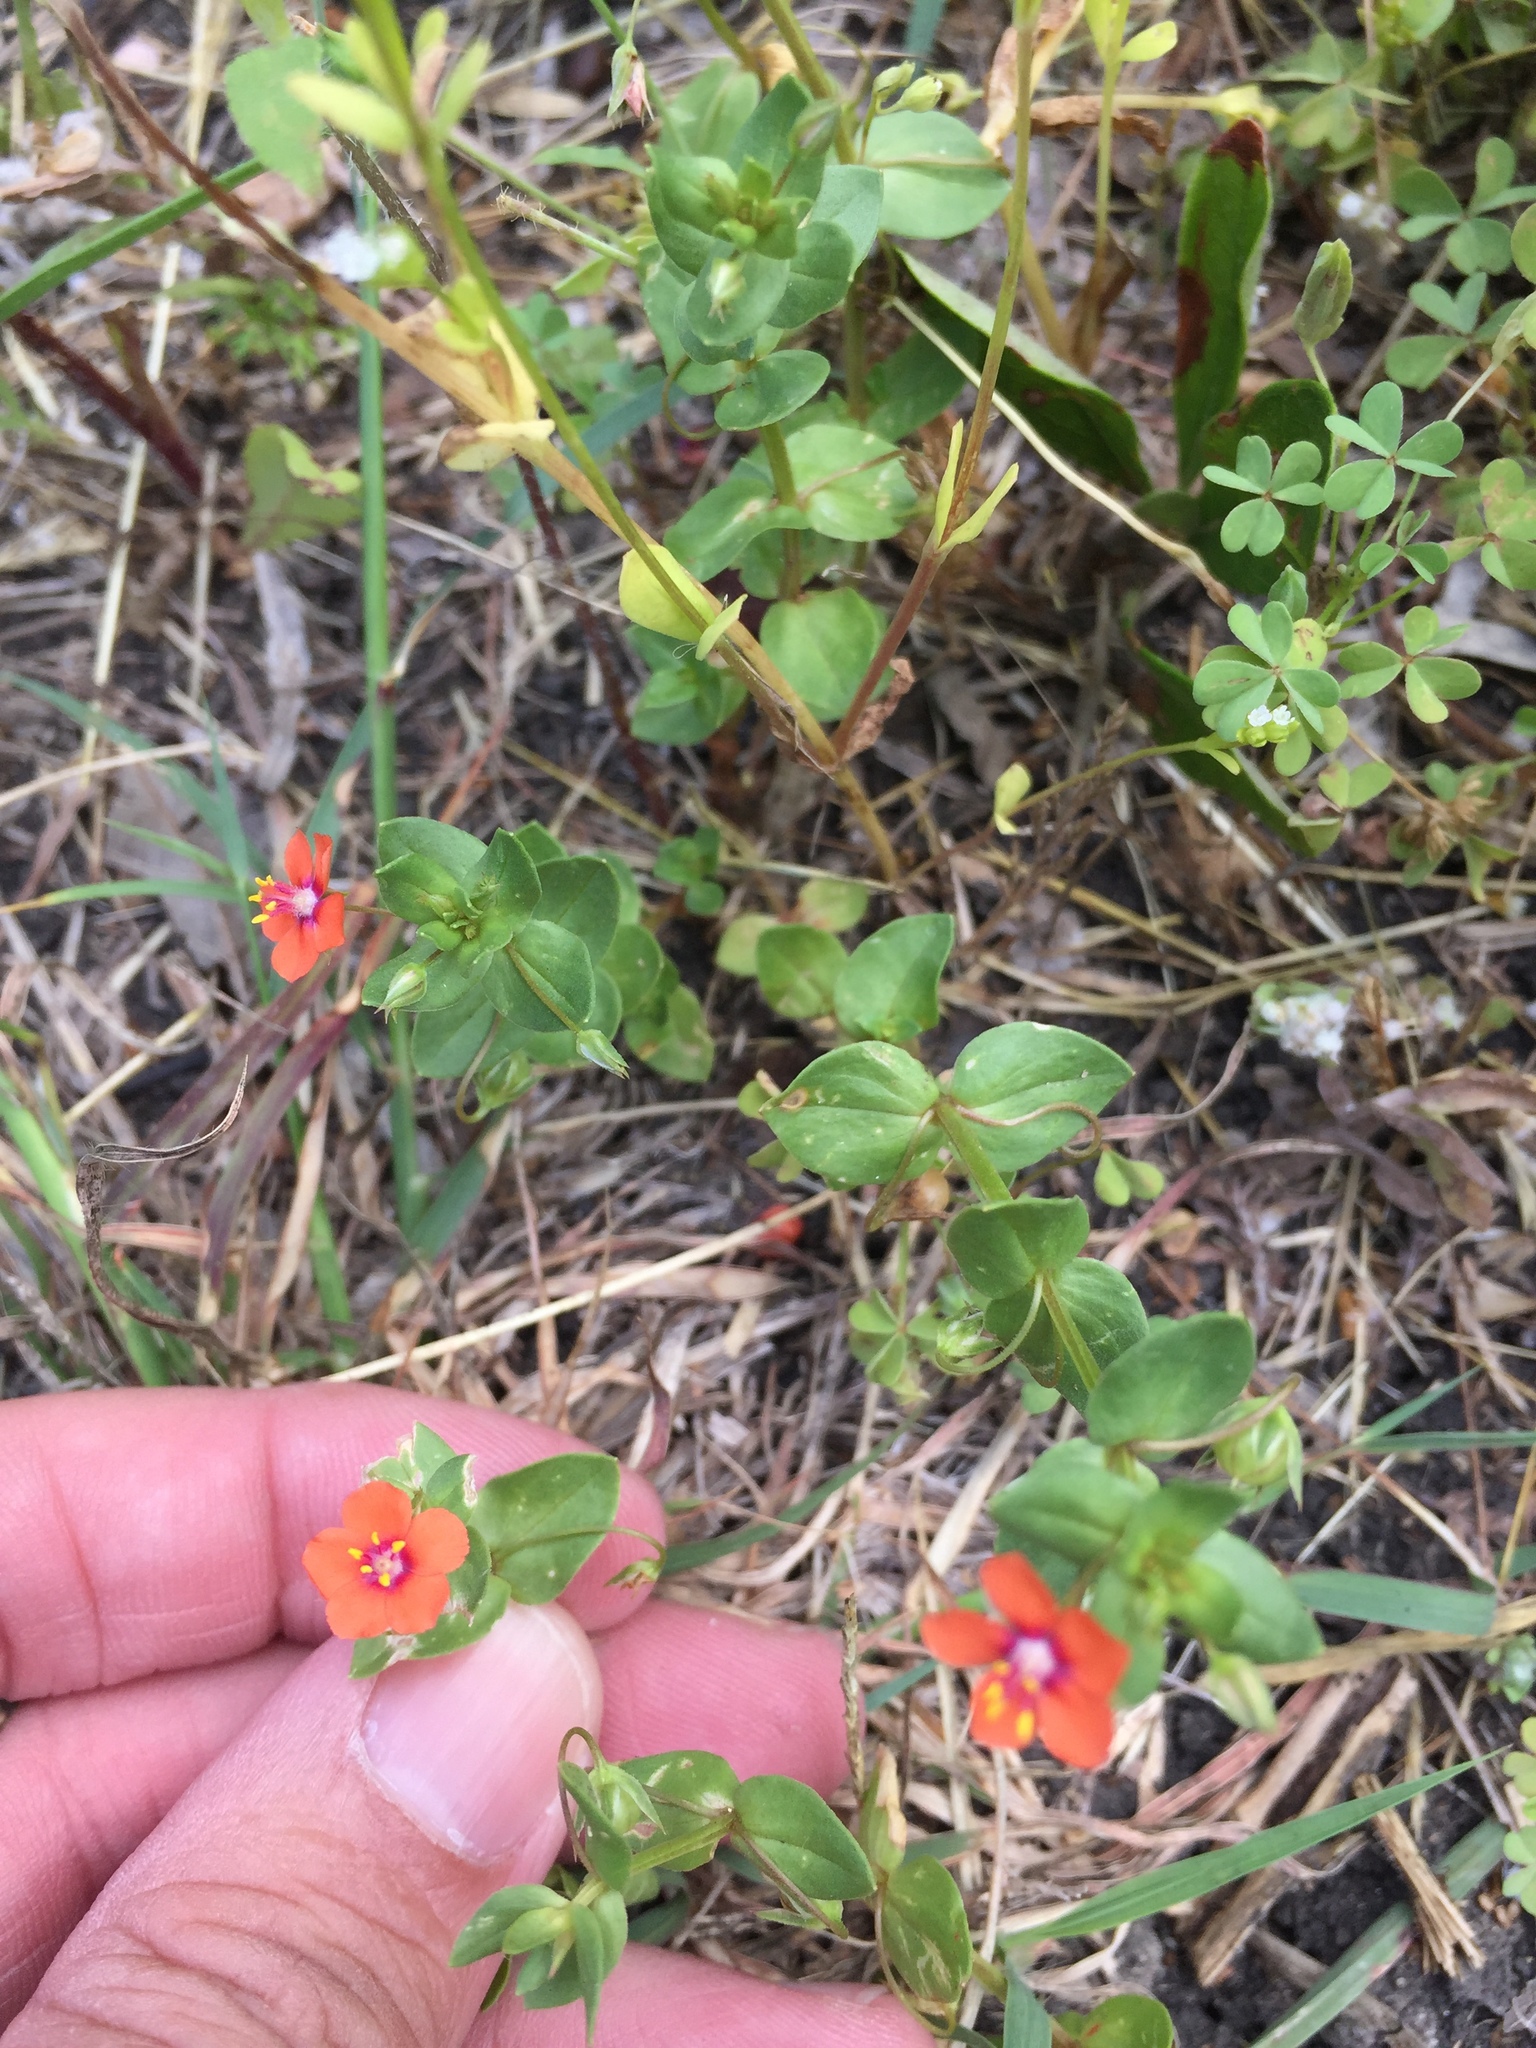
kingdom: Plantae
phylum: Tracheophyta
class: Magnoliopsida
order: Ericales
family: Primulaceae
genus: Lysimachia
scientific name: Lysimachia arvensis
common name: Scarlet pimpernel
